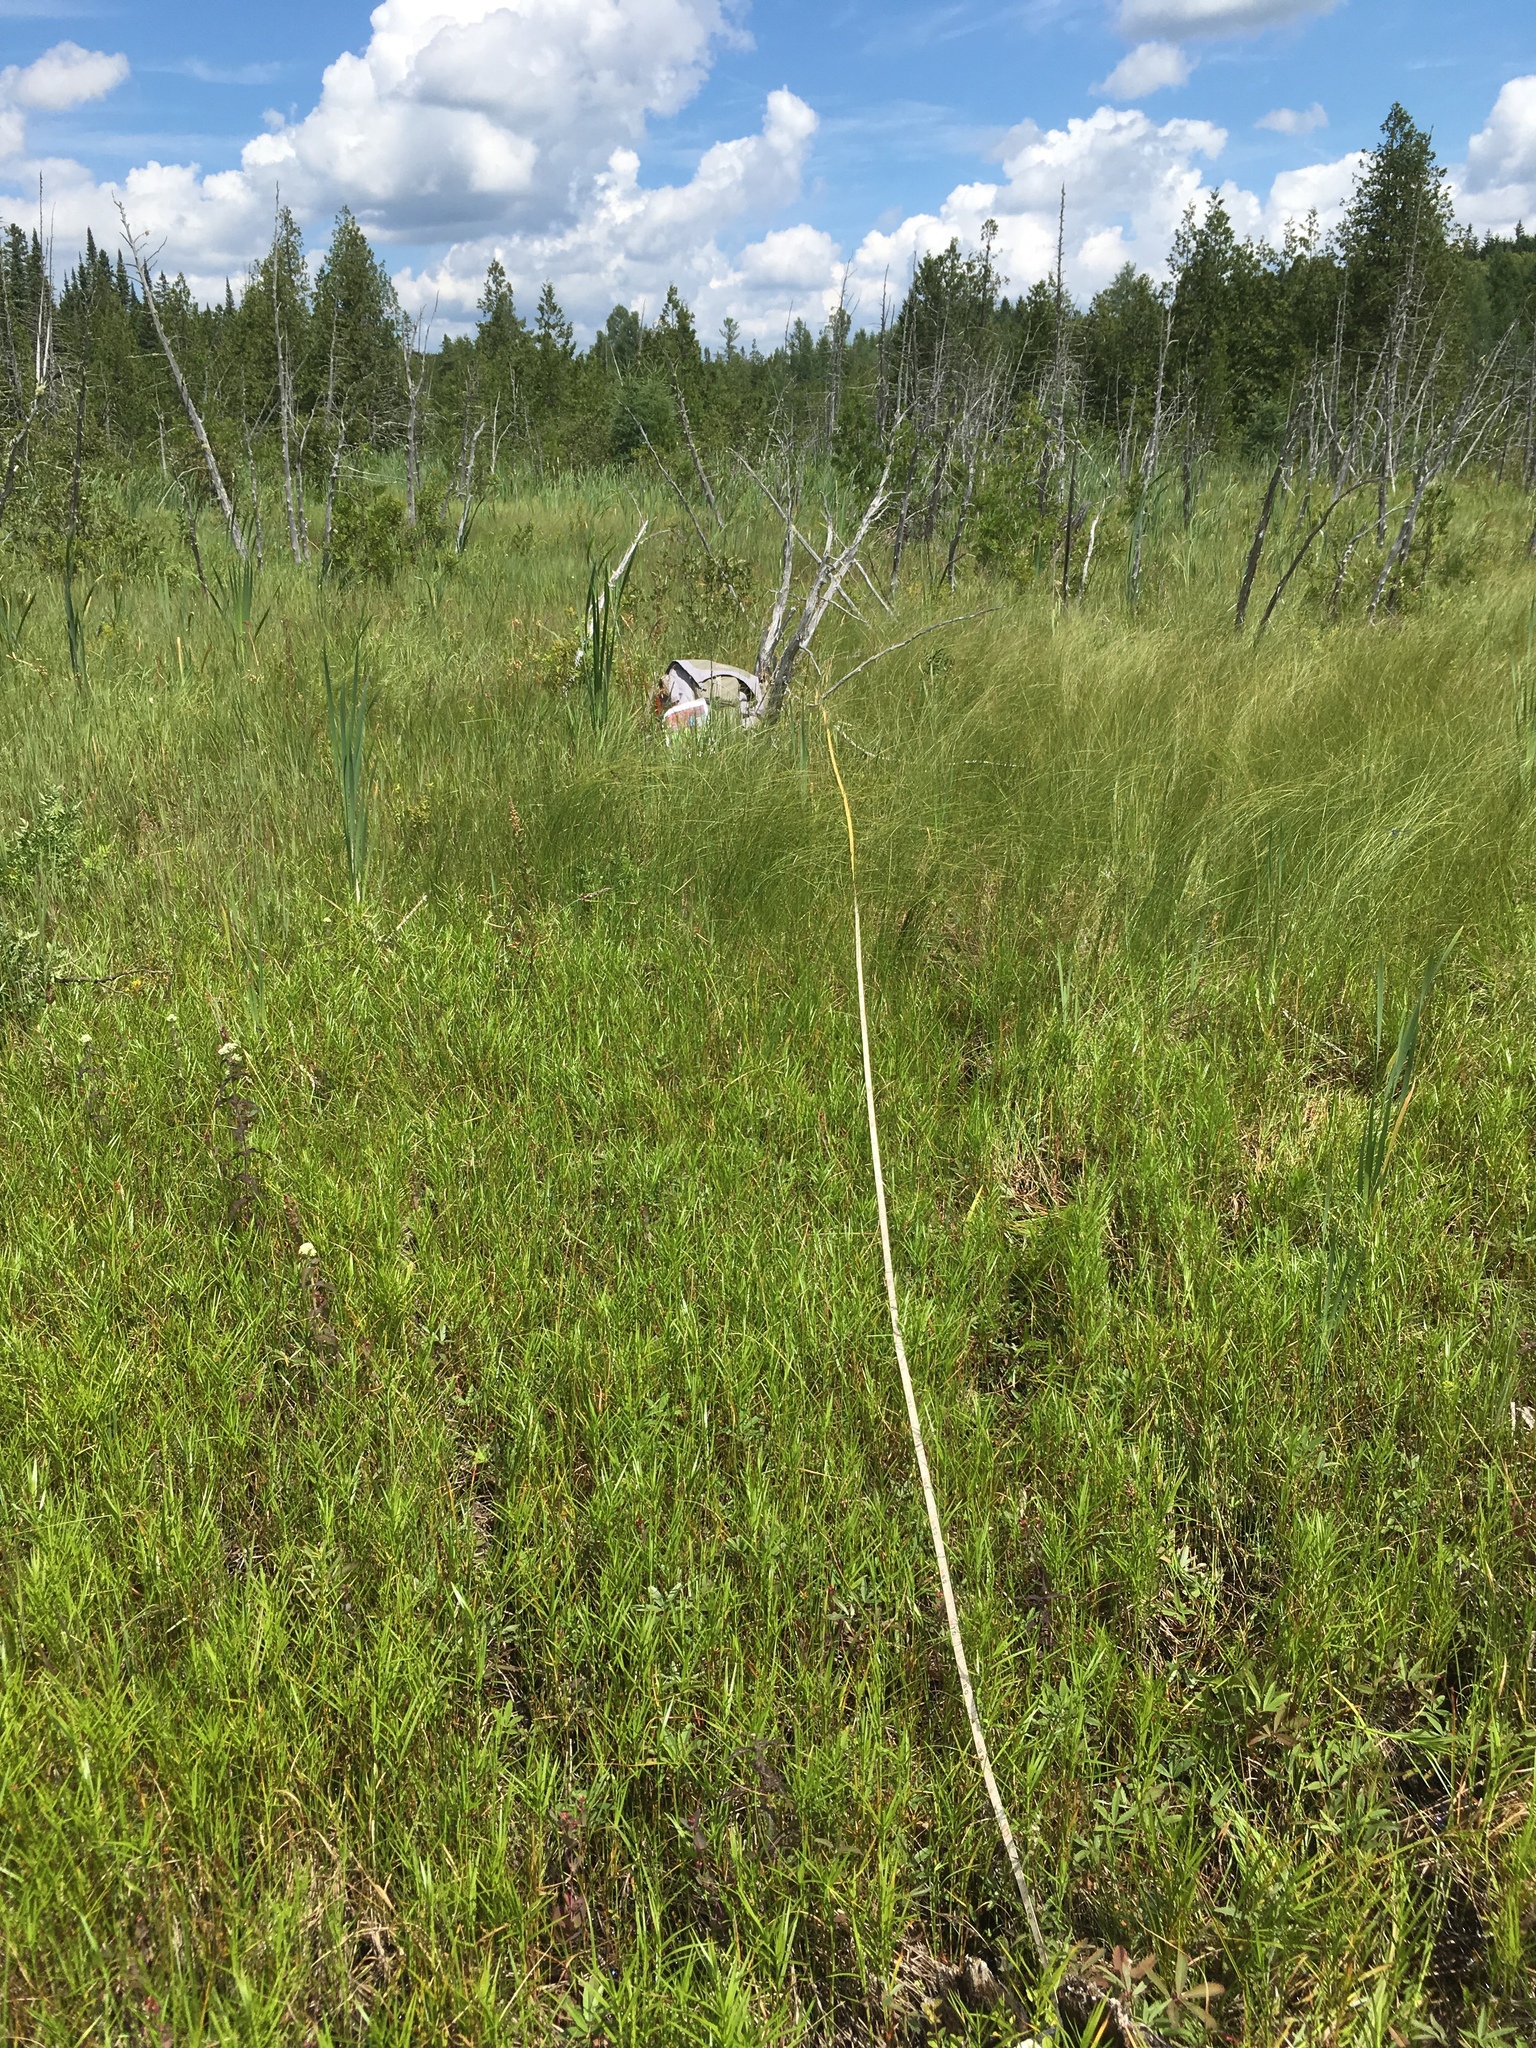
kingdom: Plantae
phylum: Tracheophyta
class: Liliopsida
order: Poales
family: Cyperaceae
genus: Dulichium
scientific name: Dulichium arundinaceum
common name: Three-way sedge
